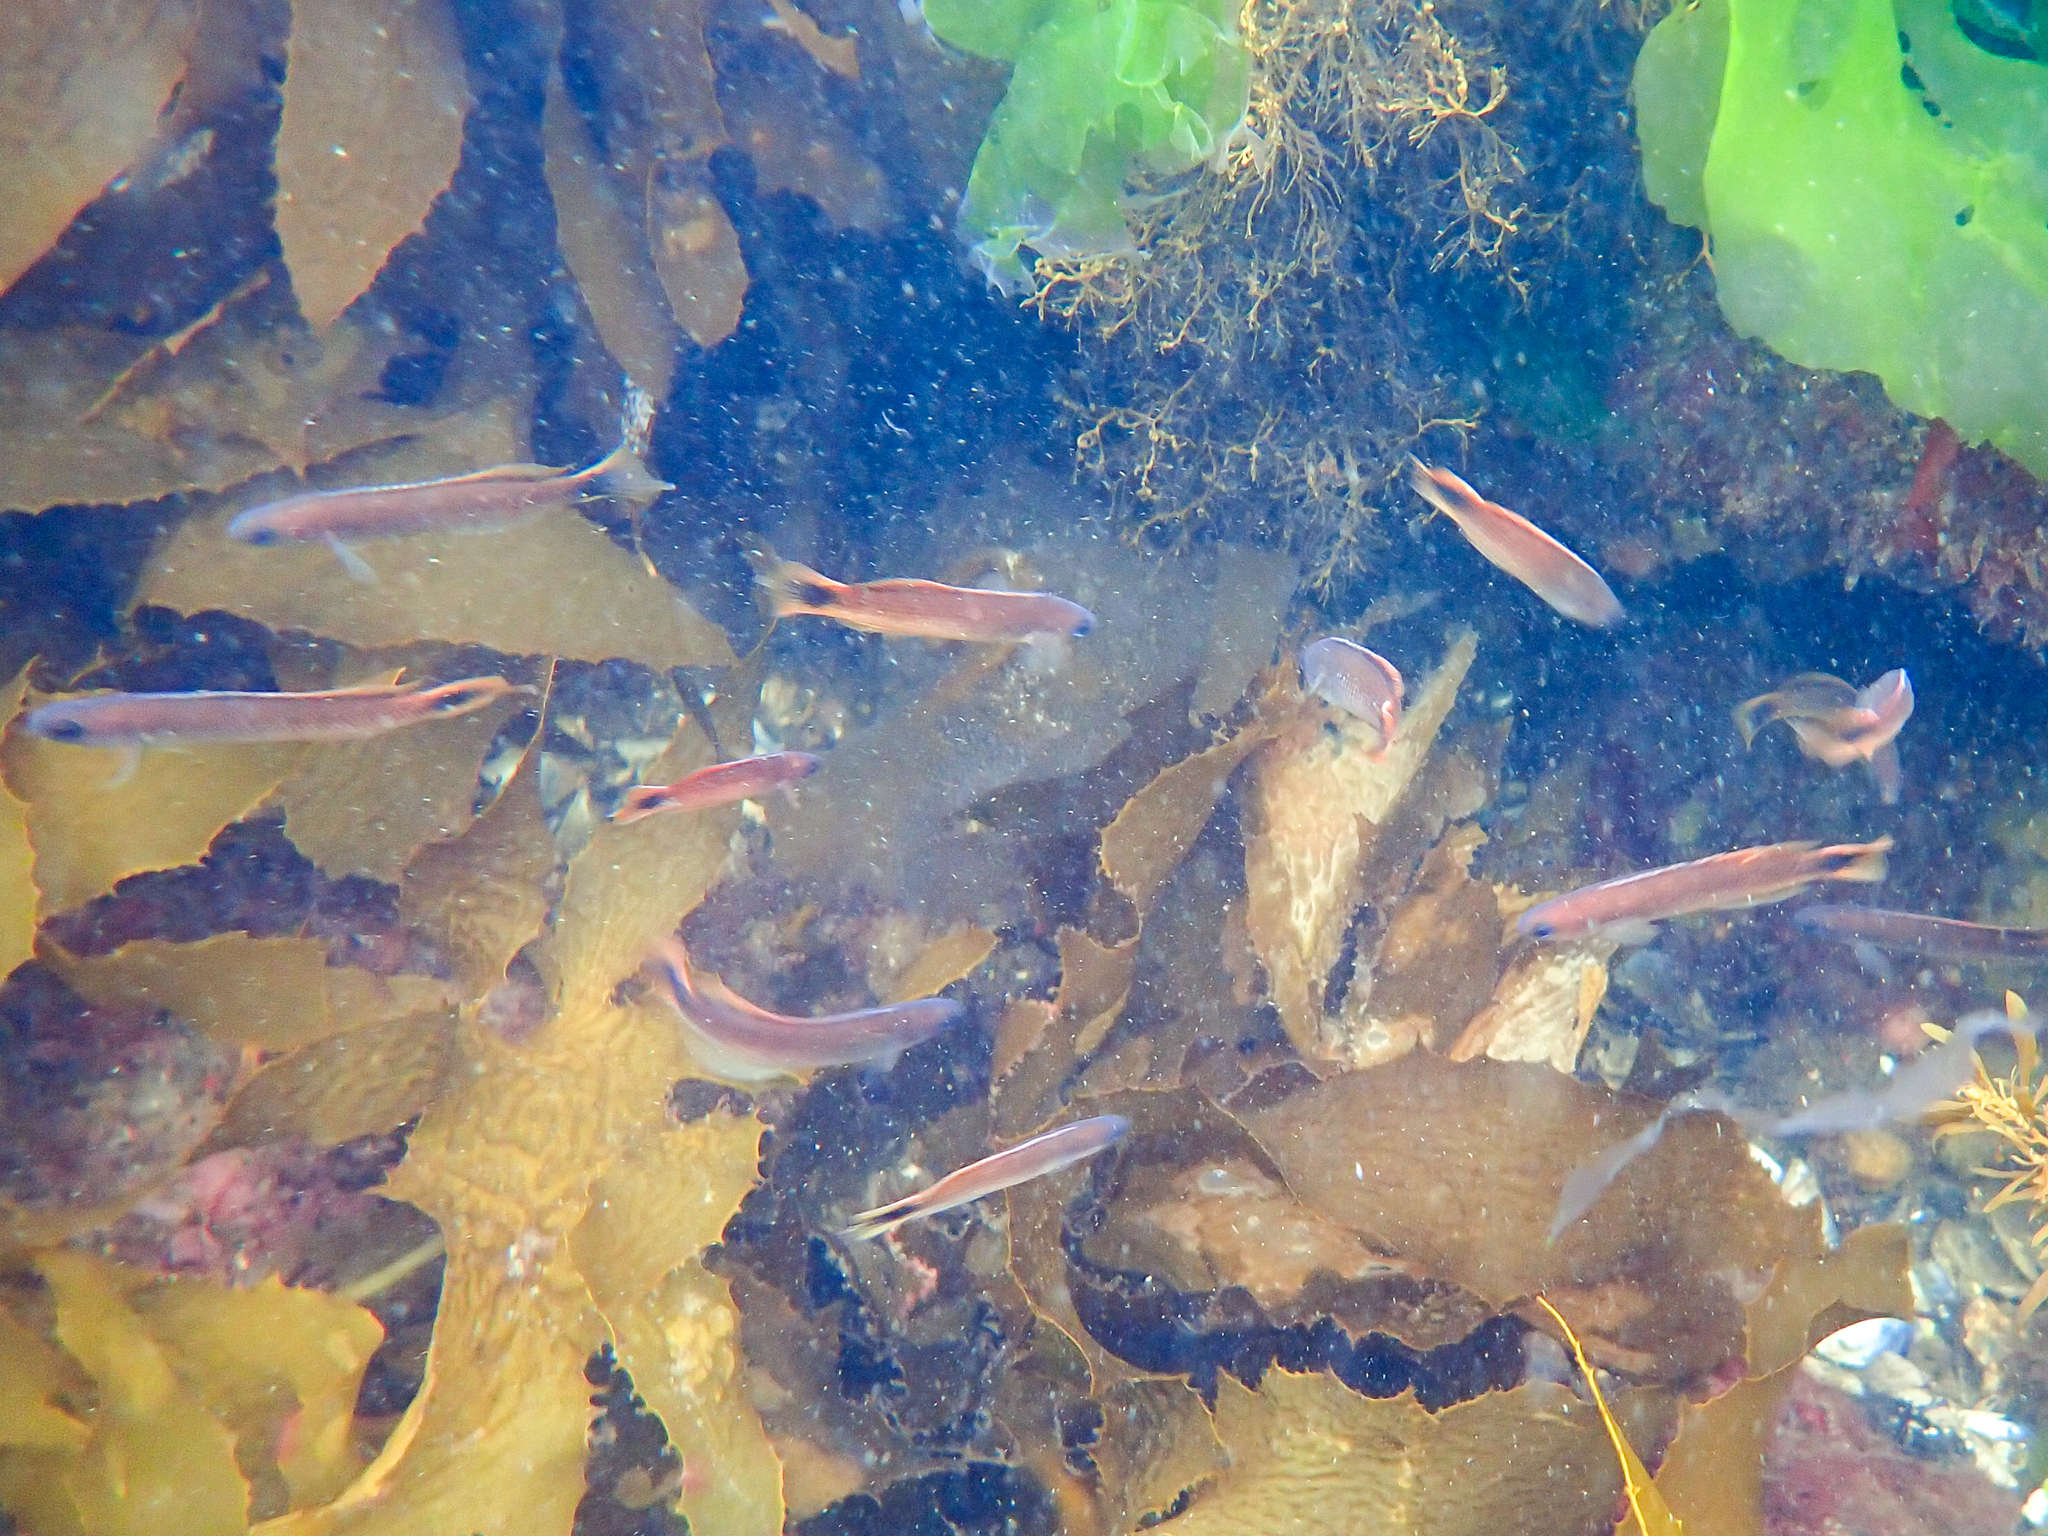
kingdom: Animalia
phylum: Chordata
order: Perciformes
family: Plesiopidae
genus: Trachinops
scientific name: Trachinops caudimaculatus
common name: Blotched-tailed trachinops
